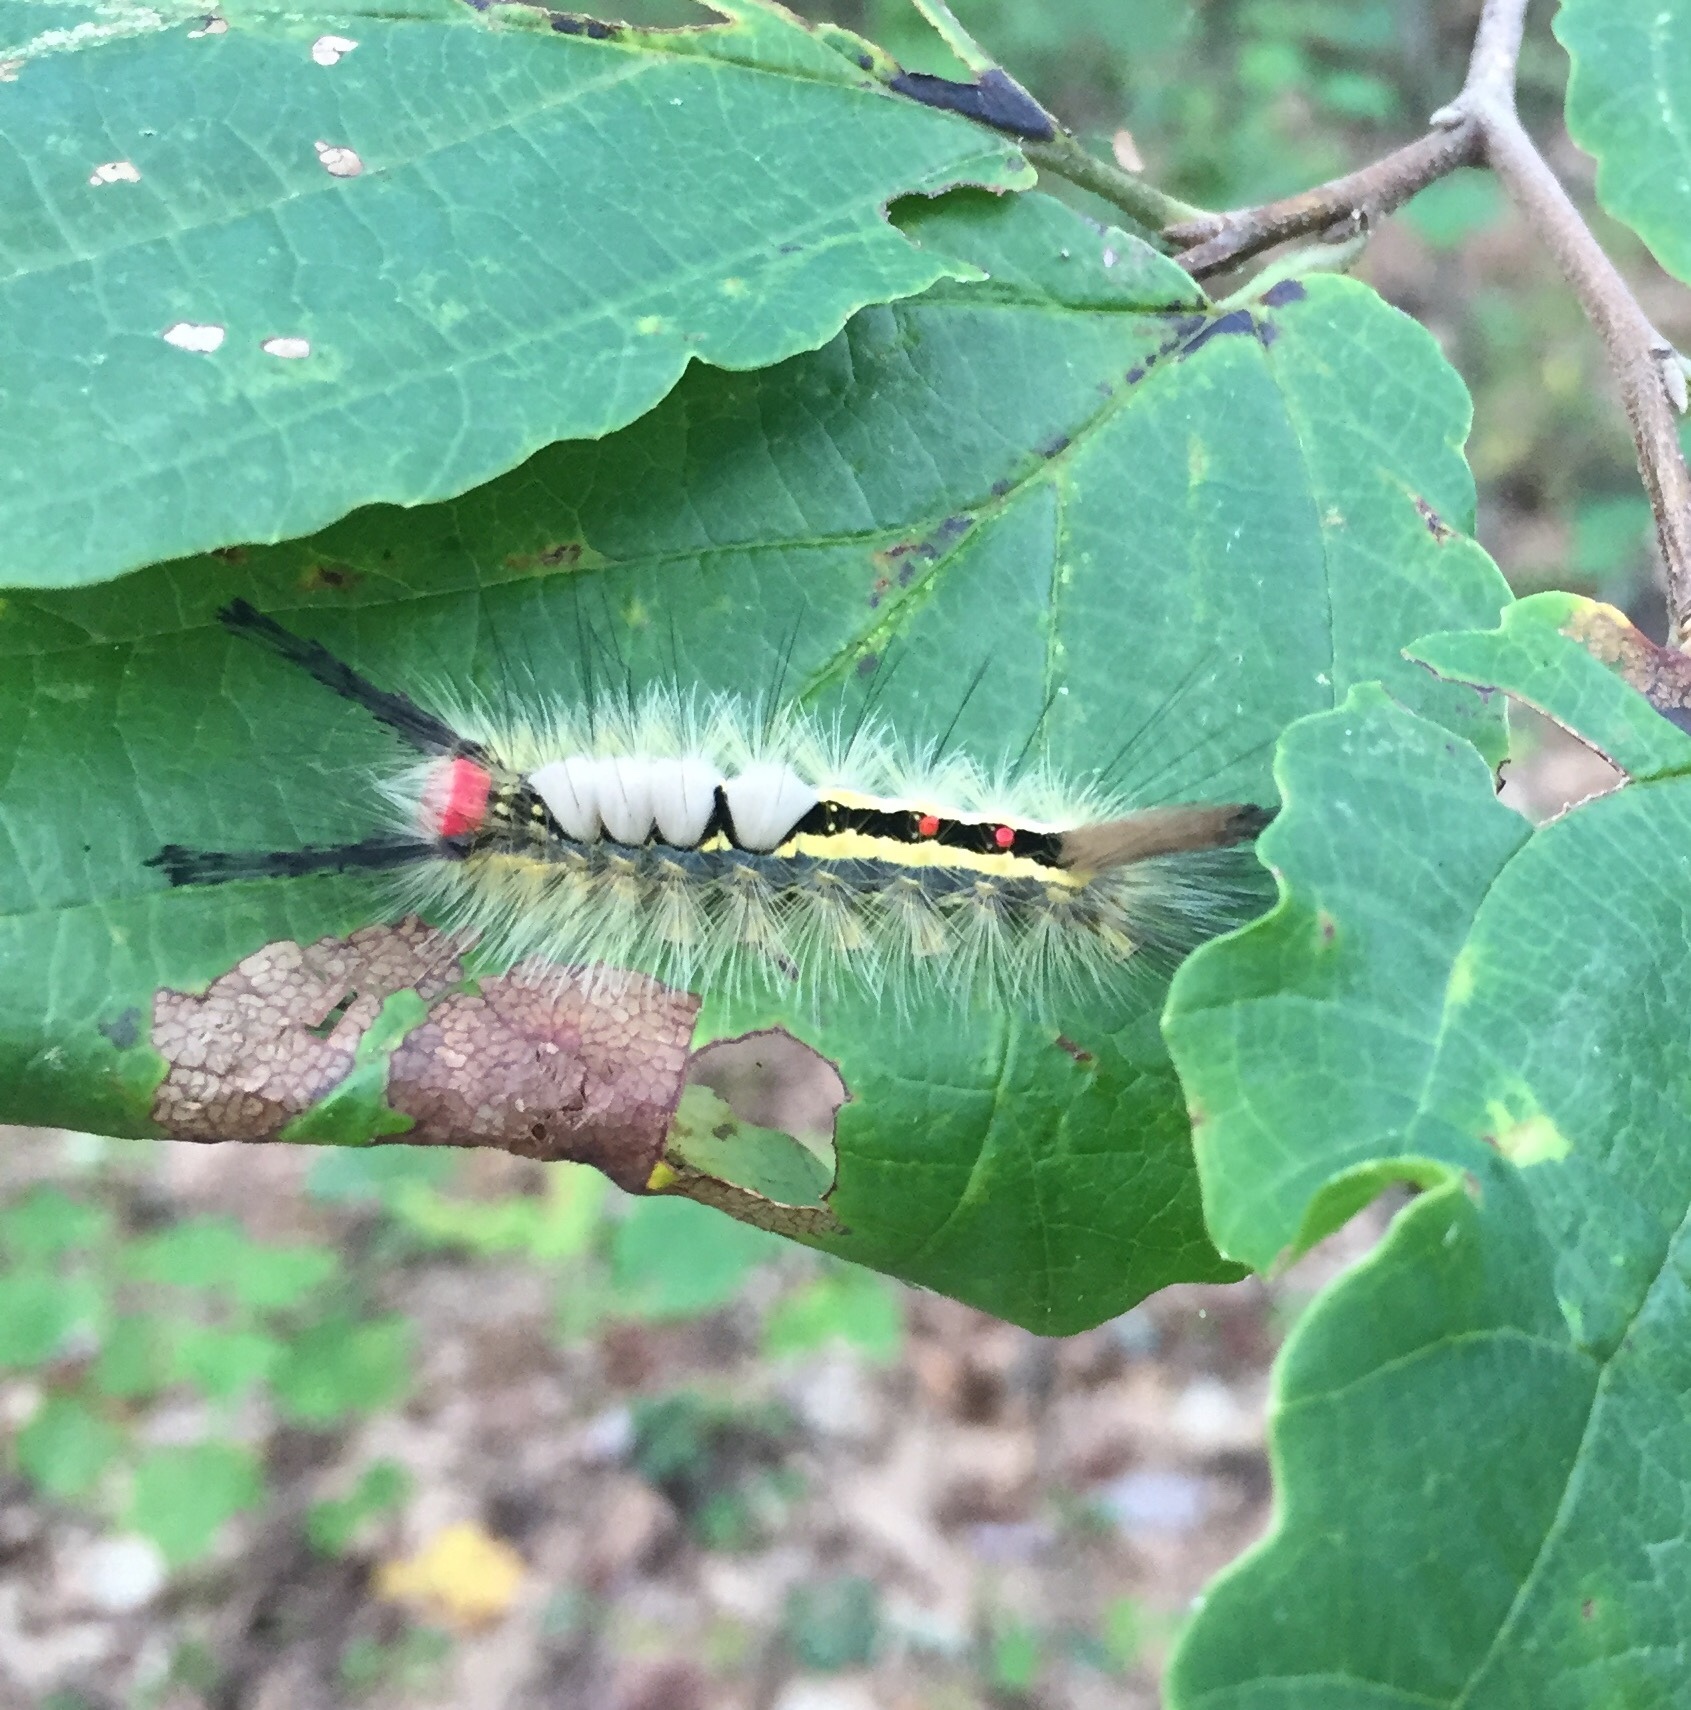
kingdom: Animalia
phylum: Arthropoda
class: Insecta
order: Lepidoptera
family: Erebidae
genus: Orgyia
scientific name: Orgyia leucostigma
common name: White-marked tussock moth
